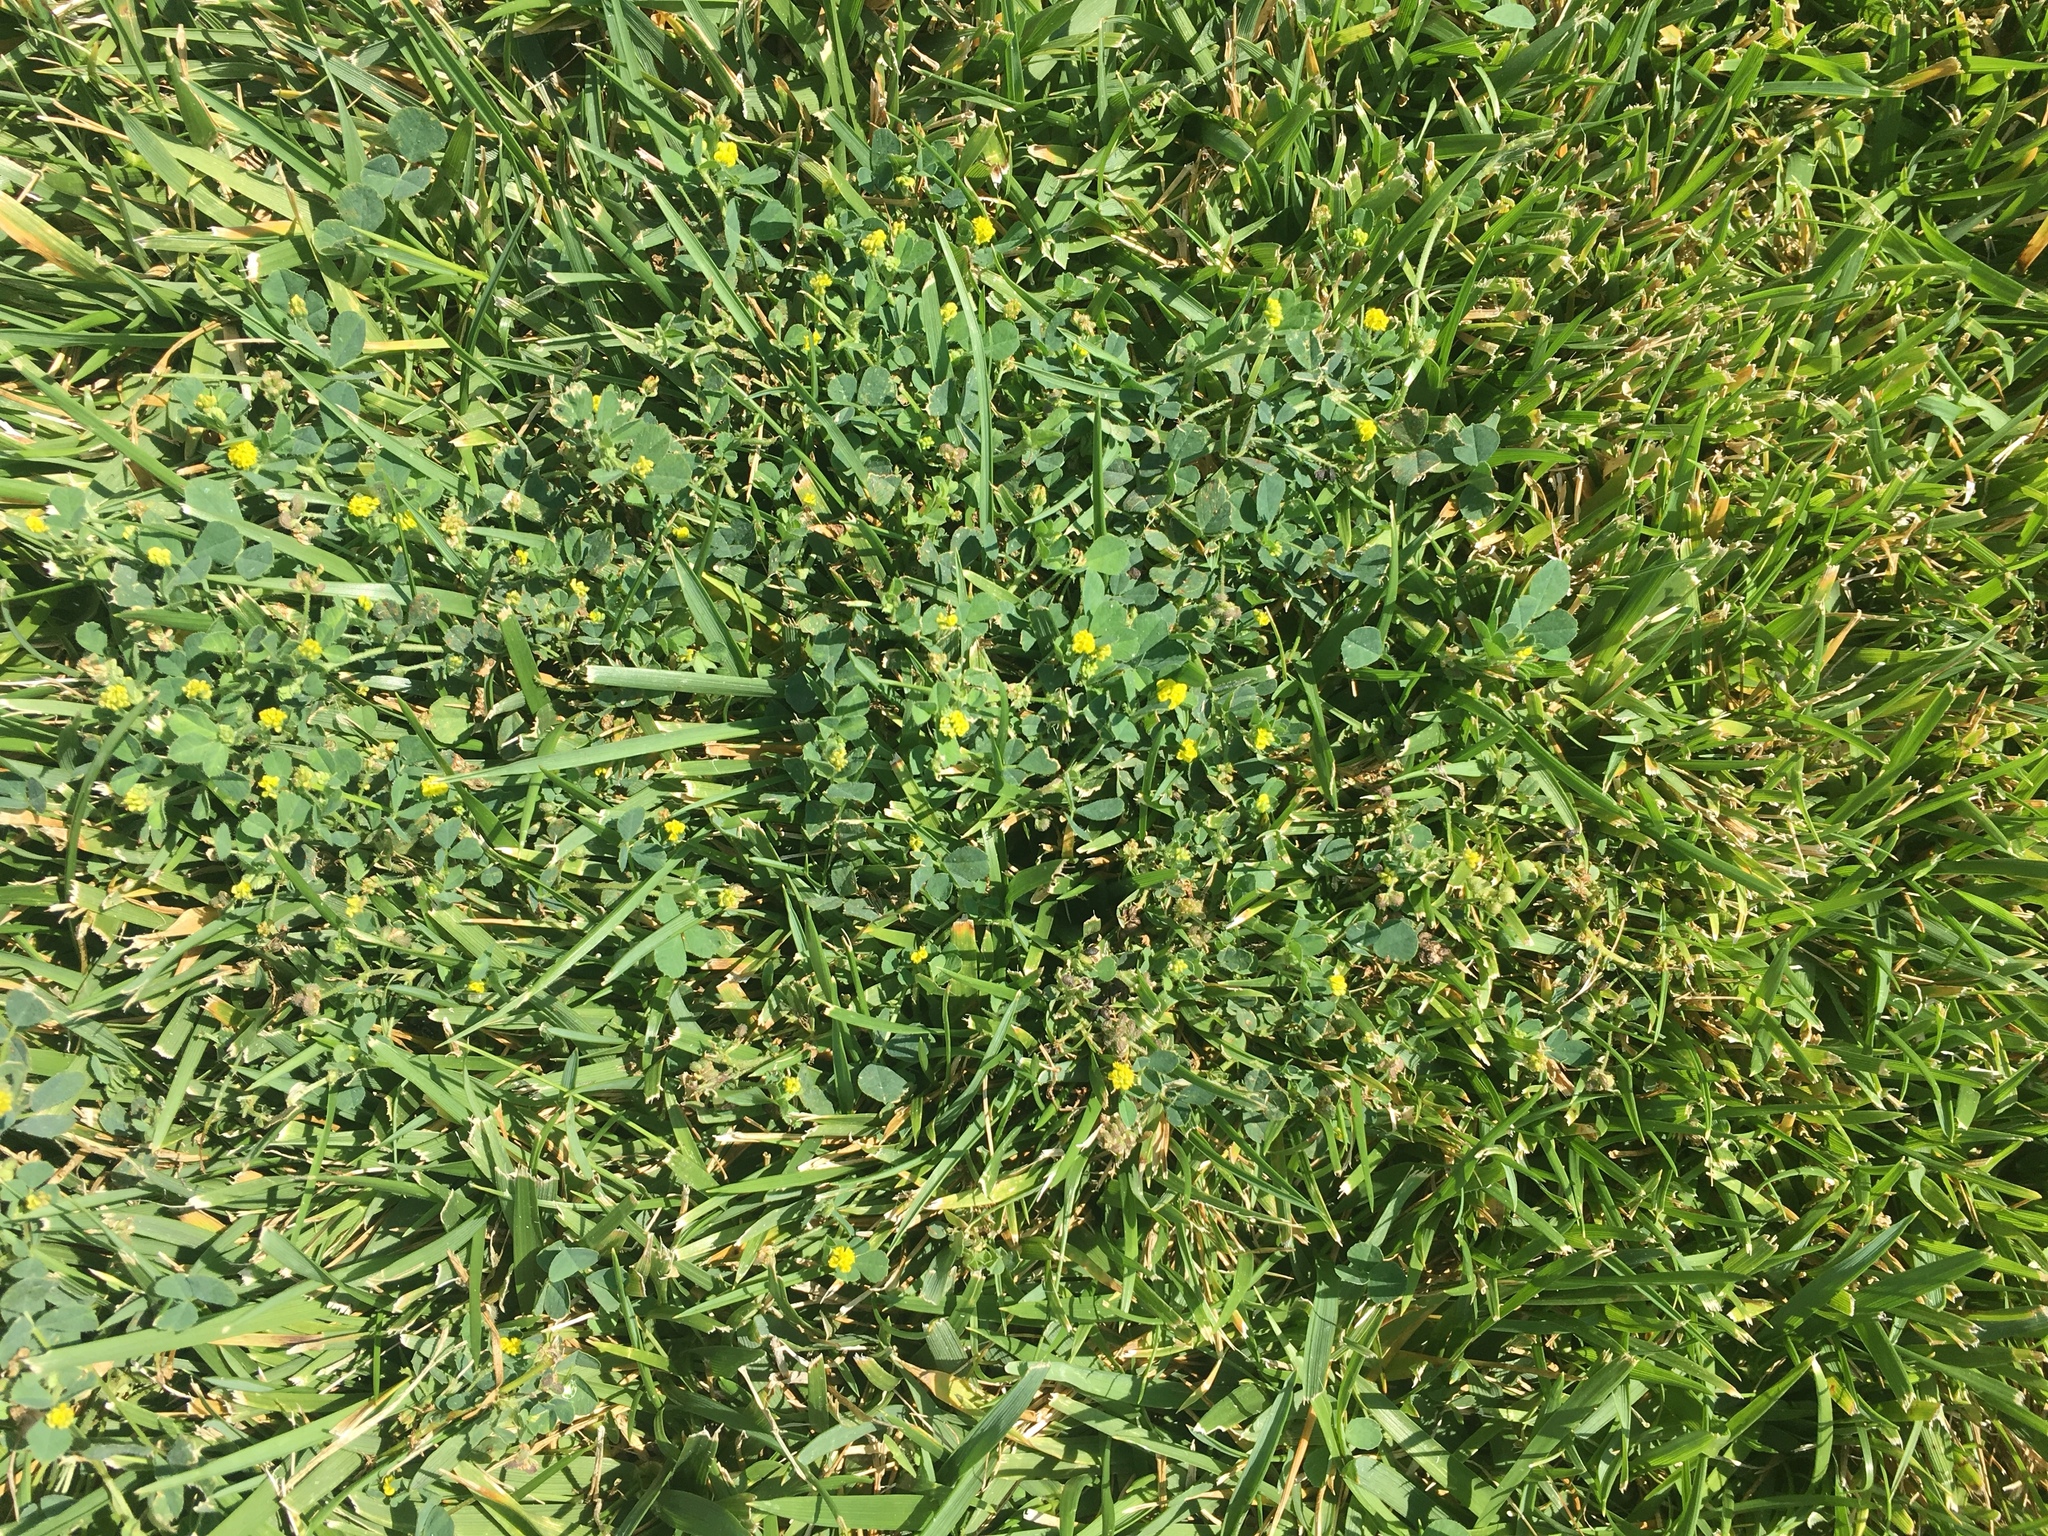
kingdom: Plantae
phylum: Tracheophyta
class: Magnoliopsida
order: Fabales
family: Fabaceae
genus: Medicago
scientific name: Medicago lupulina
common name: Black medick
